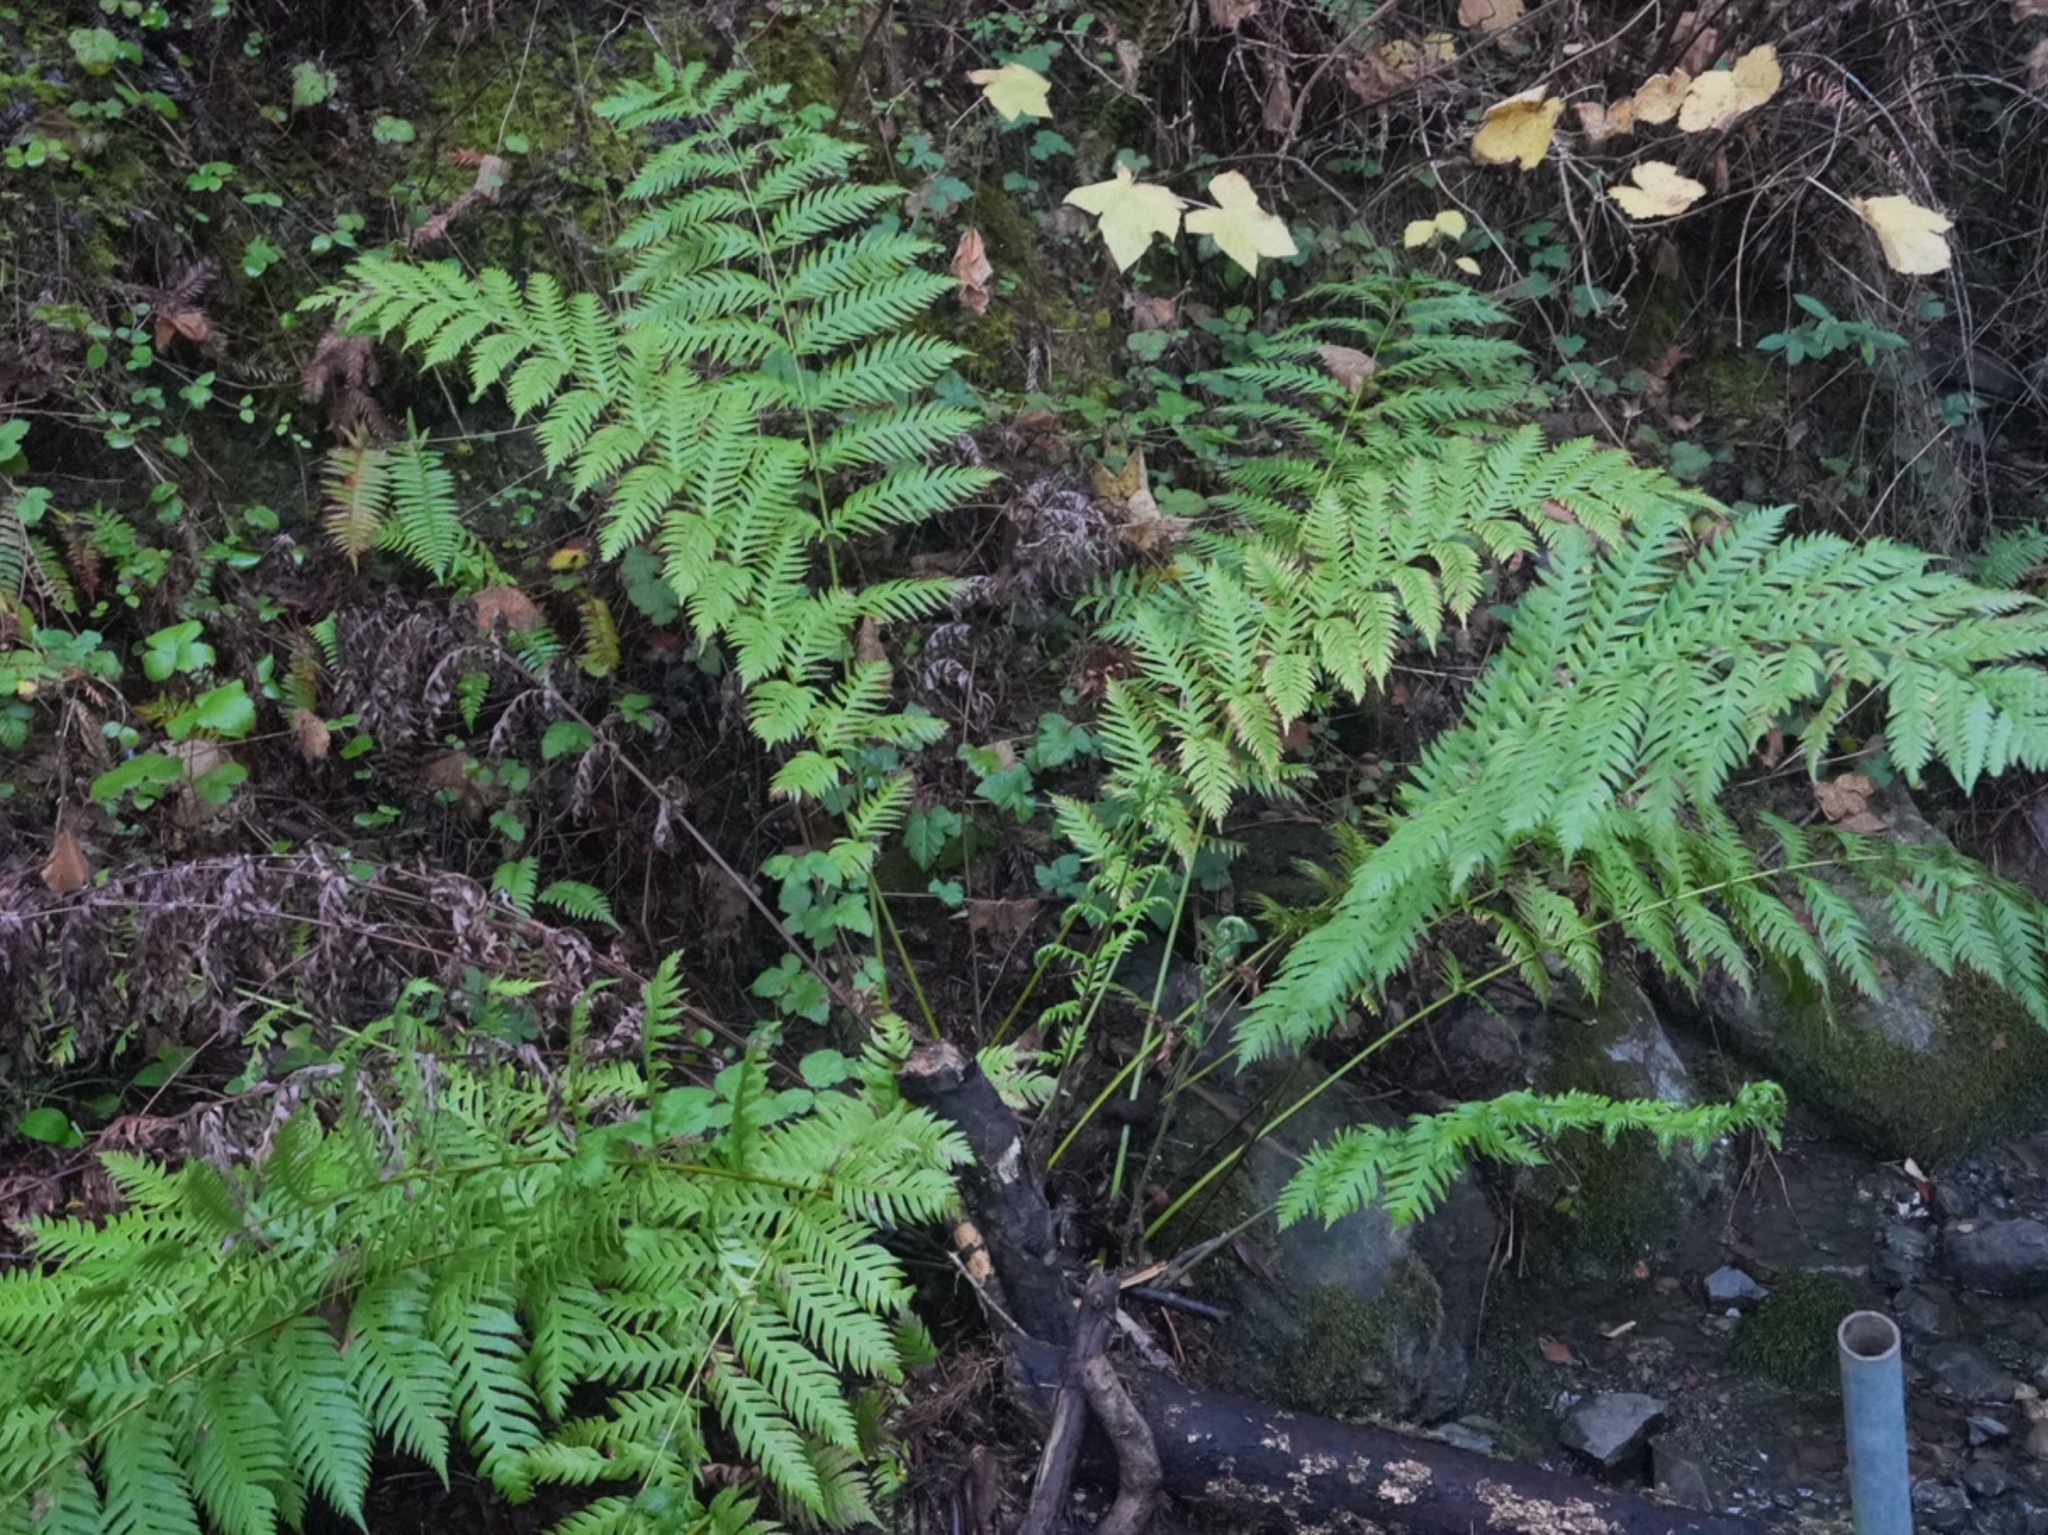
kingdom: Plantae
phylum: Tracheophyta
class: Polypodiopsida
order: Polypodiales
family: Blechnaceae
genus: Woodwardia
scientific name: Woodwardia fimbriata
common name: Giant chain fern
